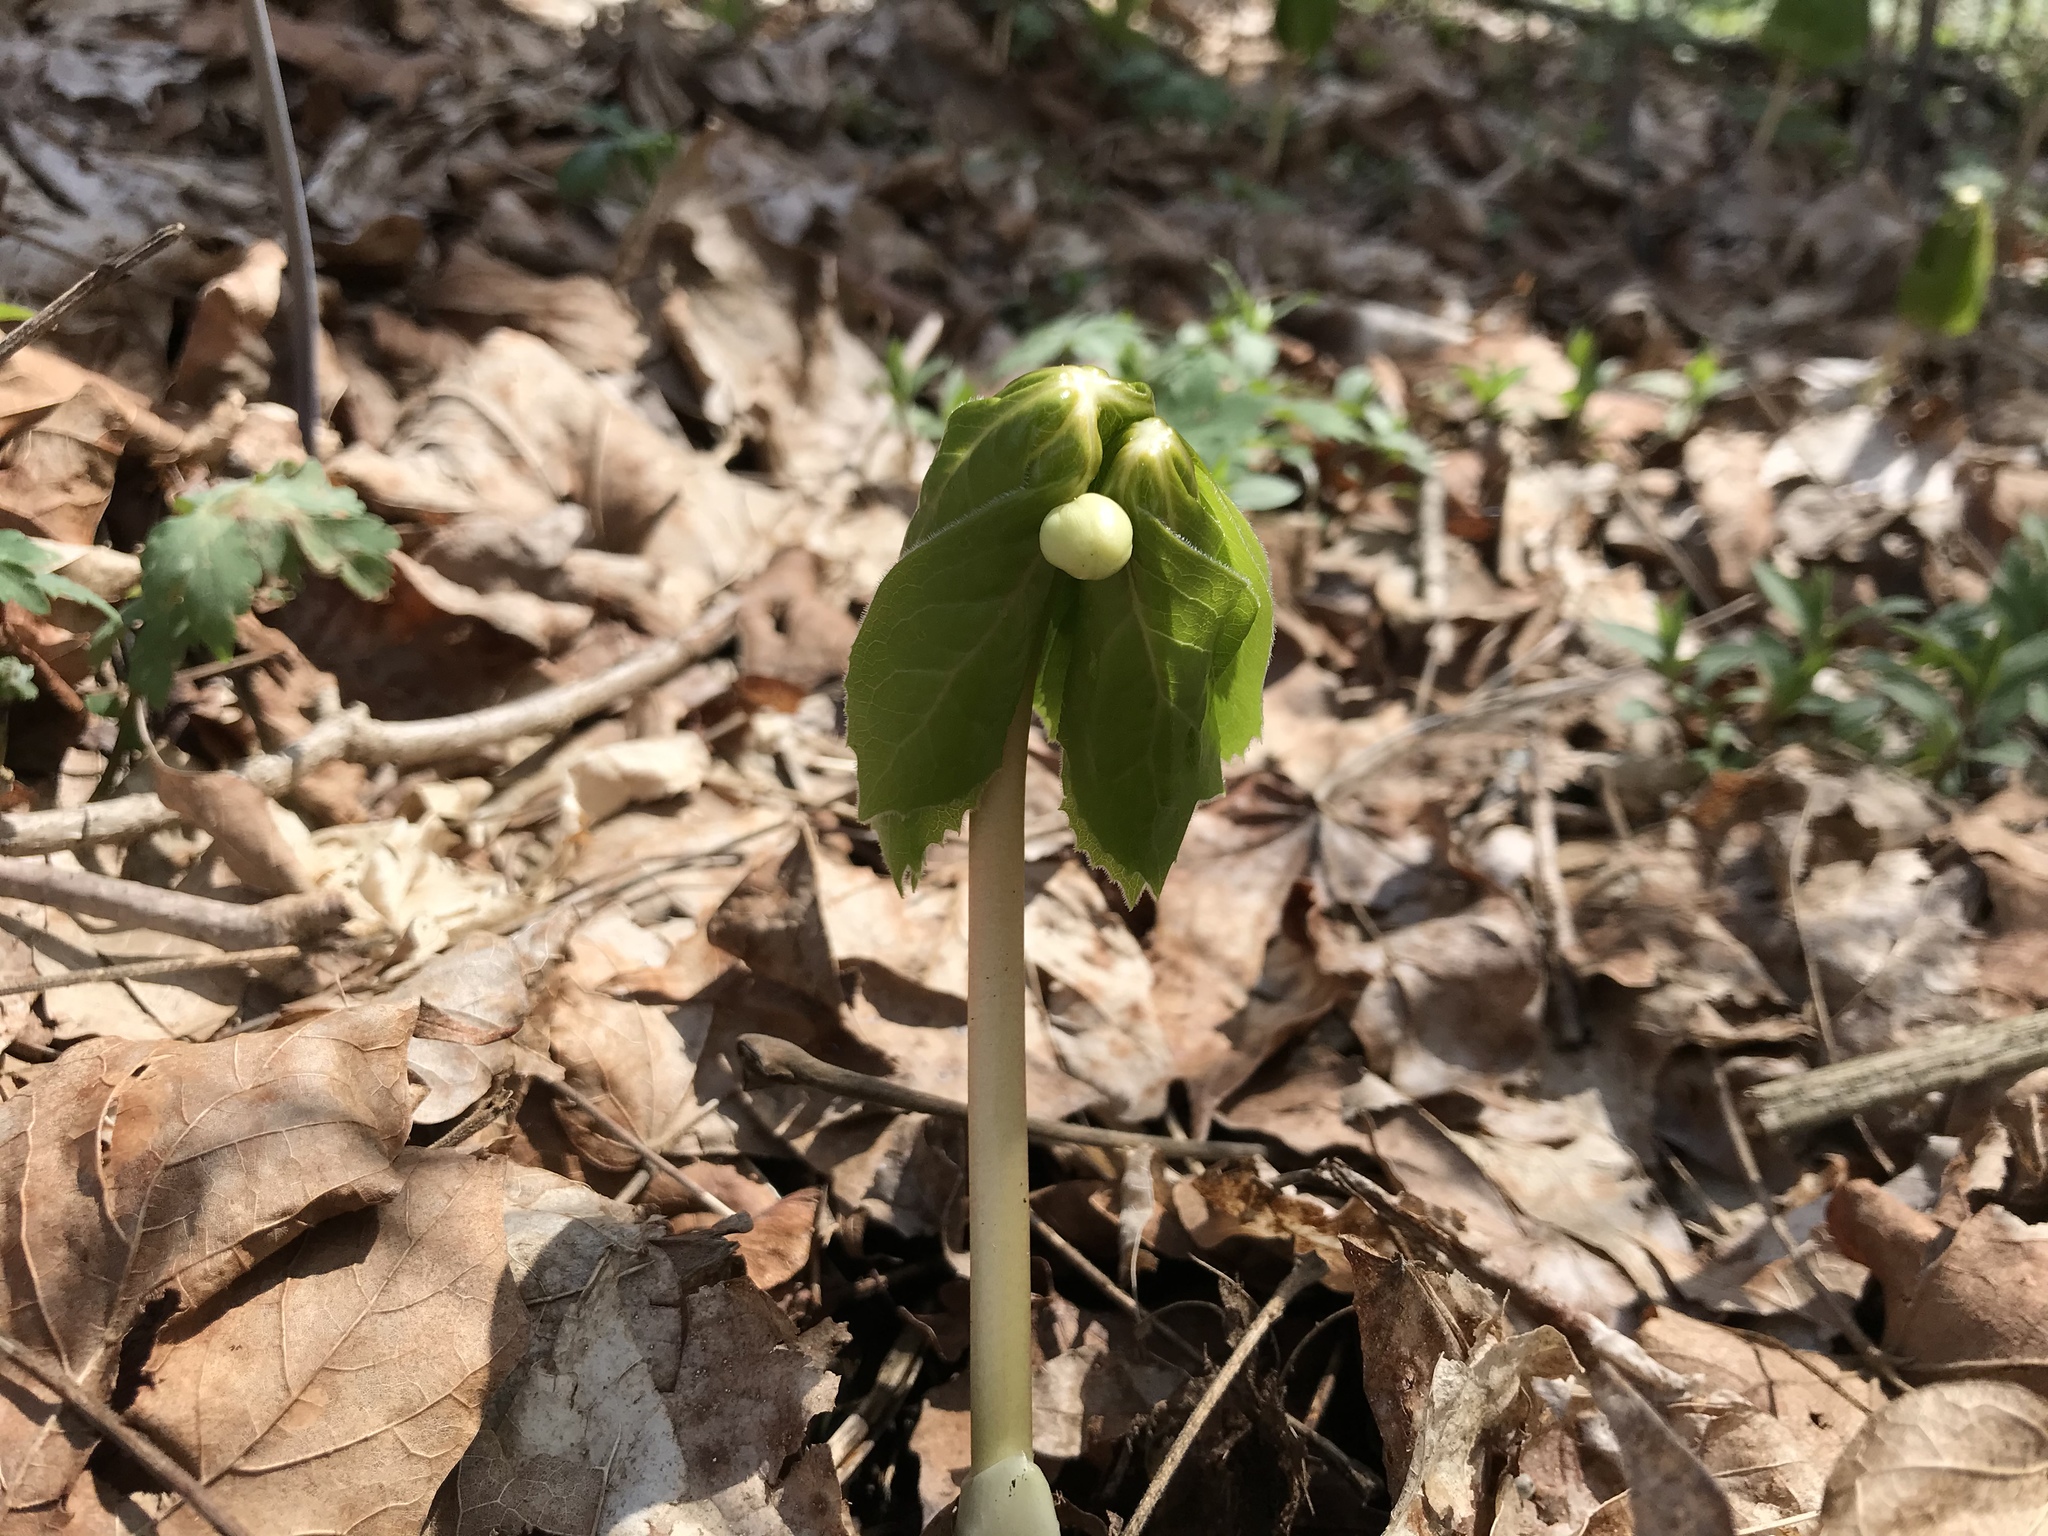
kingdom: Plantae
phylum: Tracheophyta
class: Magnoliopsida
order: Ranunculales
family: Berberidaceae
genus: Podophyllum
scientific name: Podophyllum peltatum
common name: Wild mandrake
